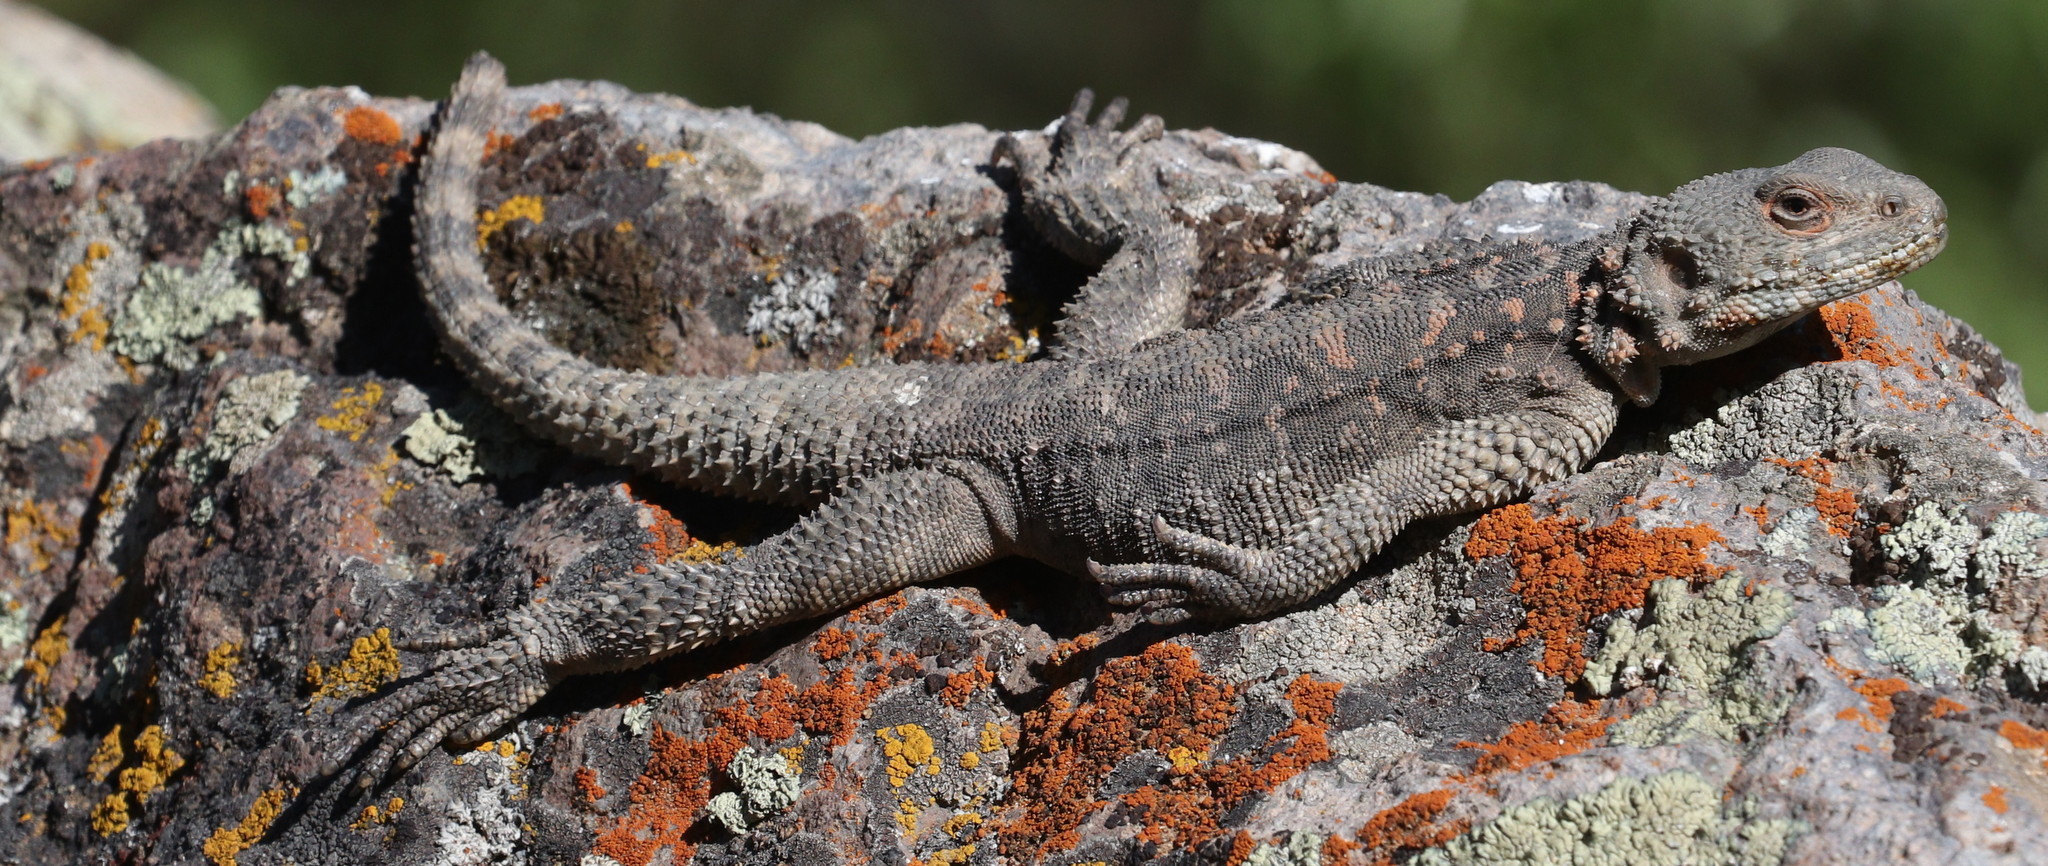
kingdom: Animalia
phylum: Chordata
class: Squamata
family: Agamidae
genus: Paralaudakia
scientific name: Paralaudakia caucasia
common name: Caucasian agama
